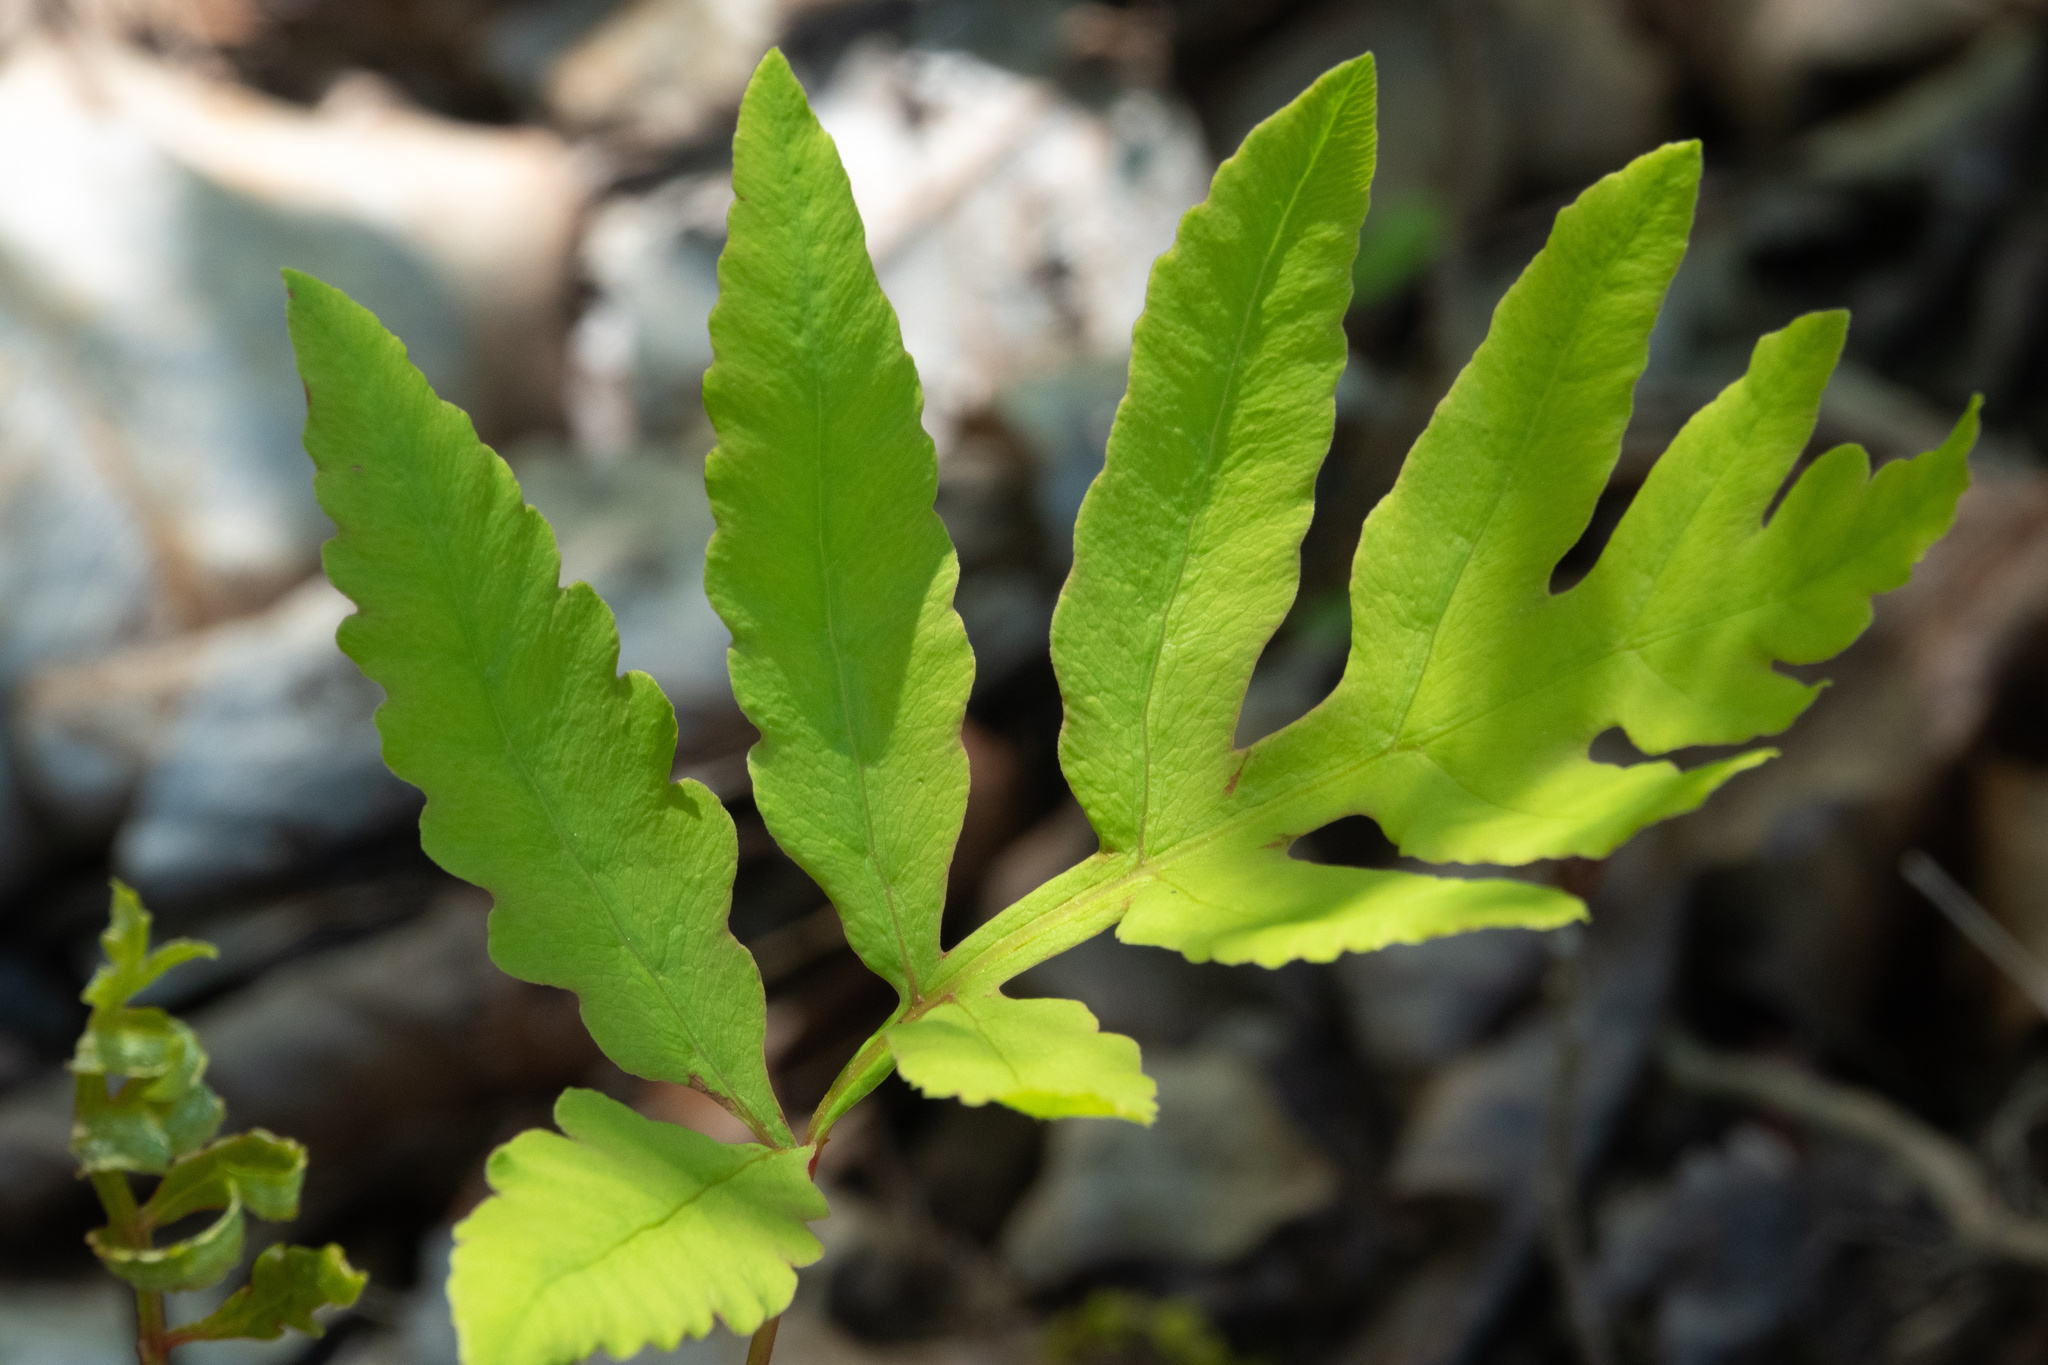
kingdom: Plantae
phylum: Tracheophyta
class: Polypodiopsida
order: Polypodiales
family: Onocleaceae
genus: Onoclea
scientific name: Onoclea sensibilis
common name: Sensitive fern
